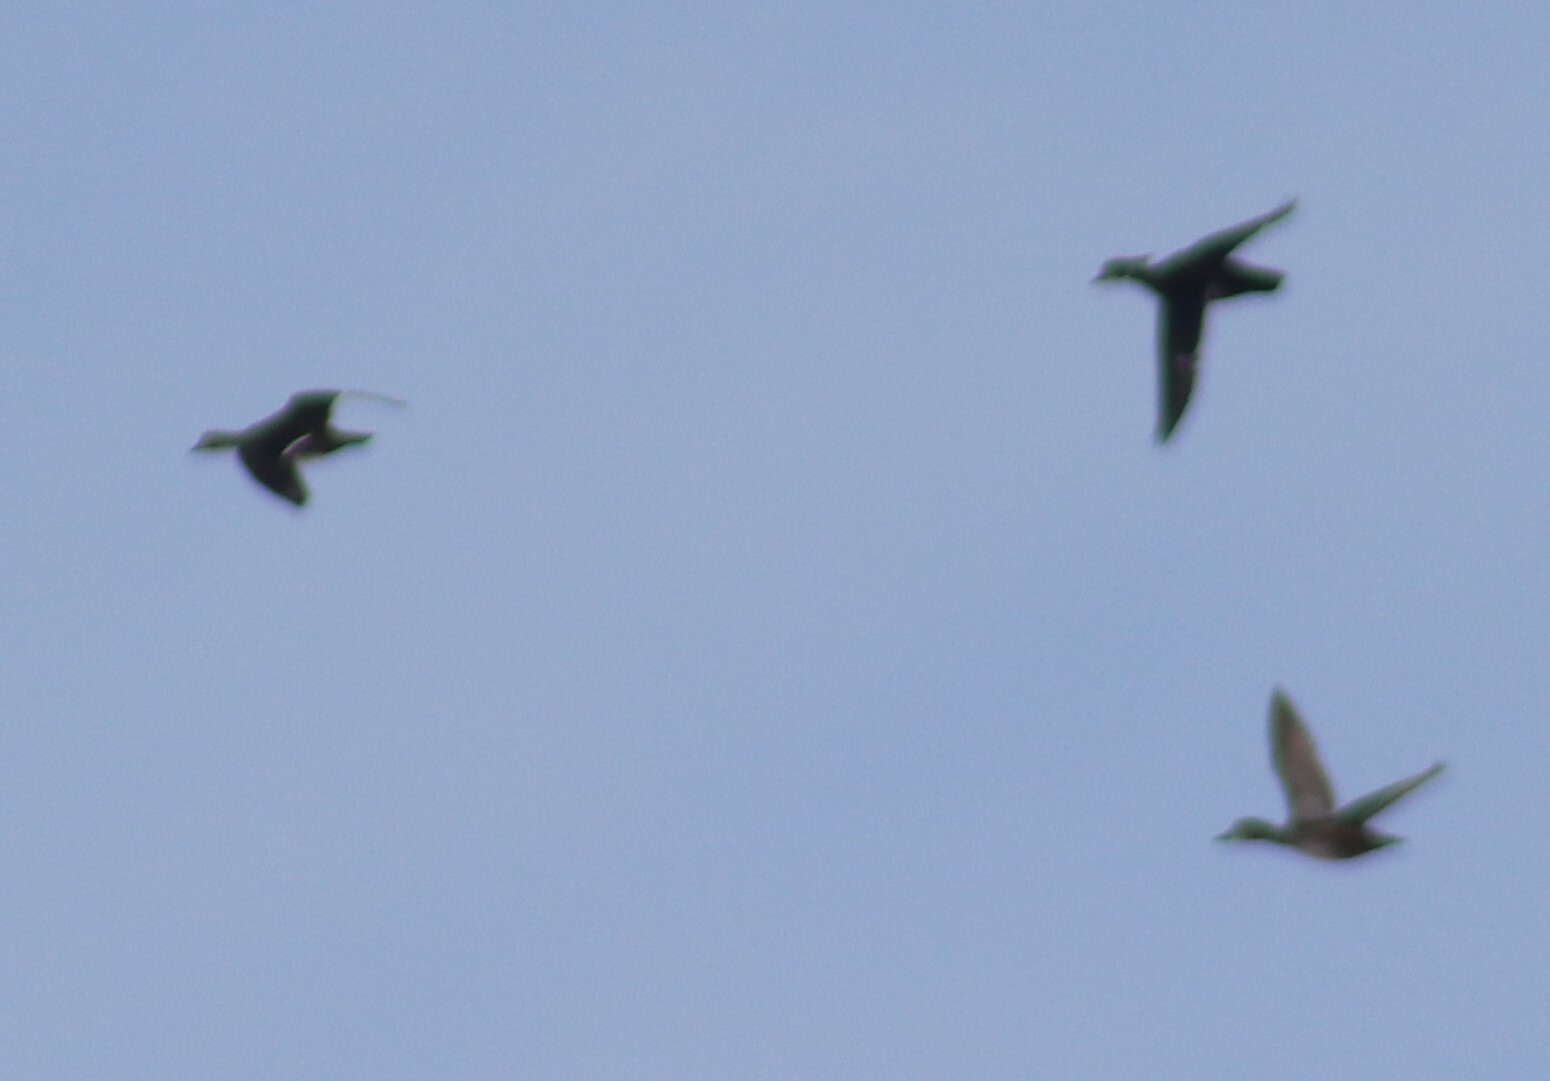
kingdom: Animalia
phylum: Chordata
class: Aves
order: Anseriformes
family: Anatidae
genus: Aix
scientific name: Aix sponsa
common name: Wood duck
